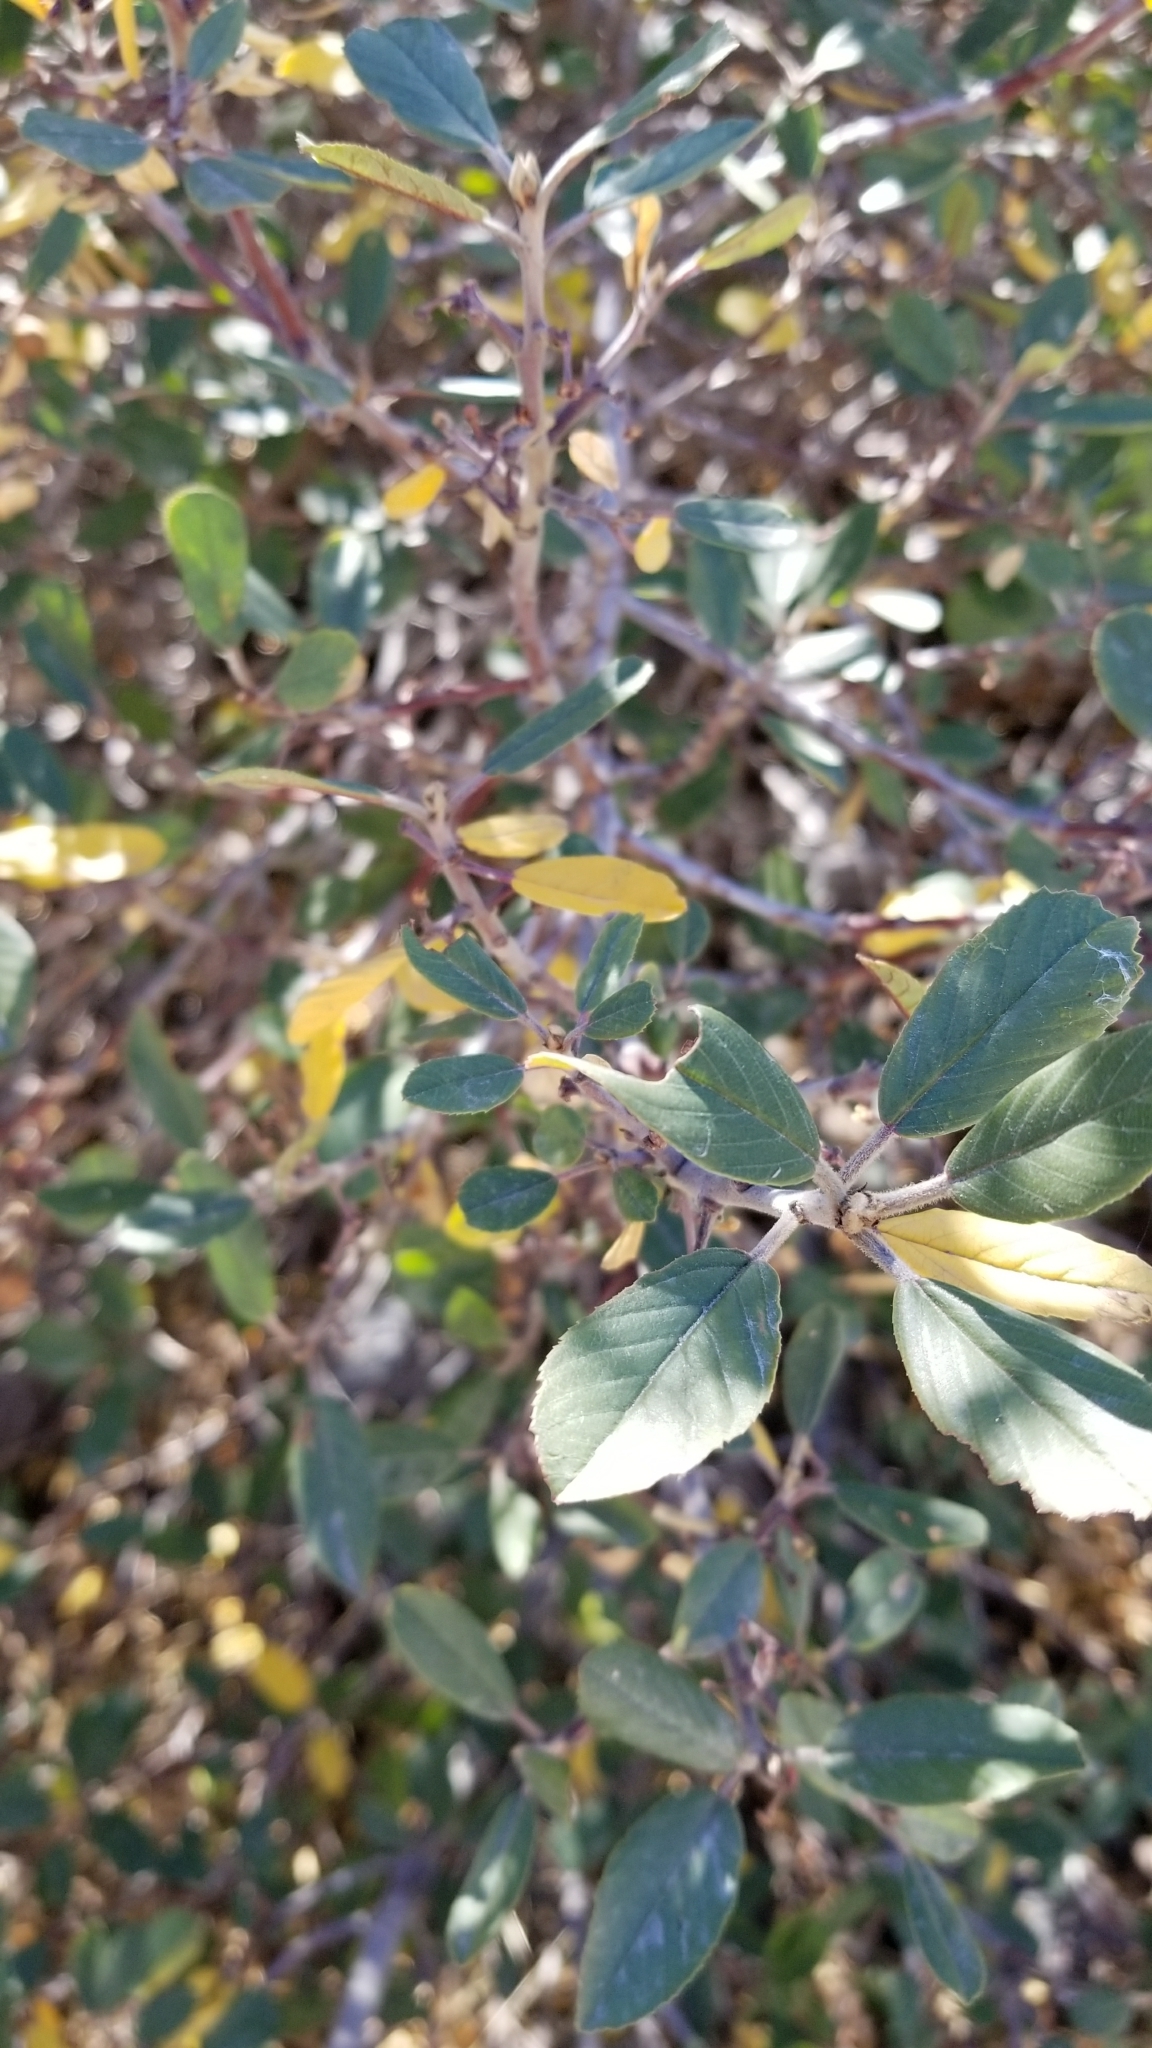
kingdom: Plantae
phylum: Tracheophyta
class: Magnoliopsida
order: Rosales
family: Rhamnaceae
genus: Frangula
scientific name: Frangula californica
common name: California buckthorn
